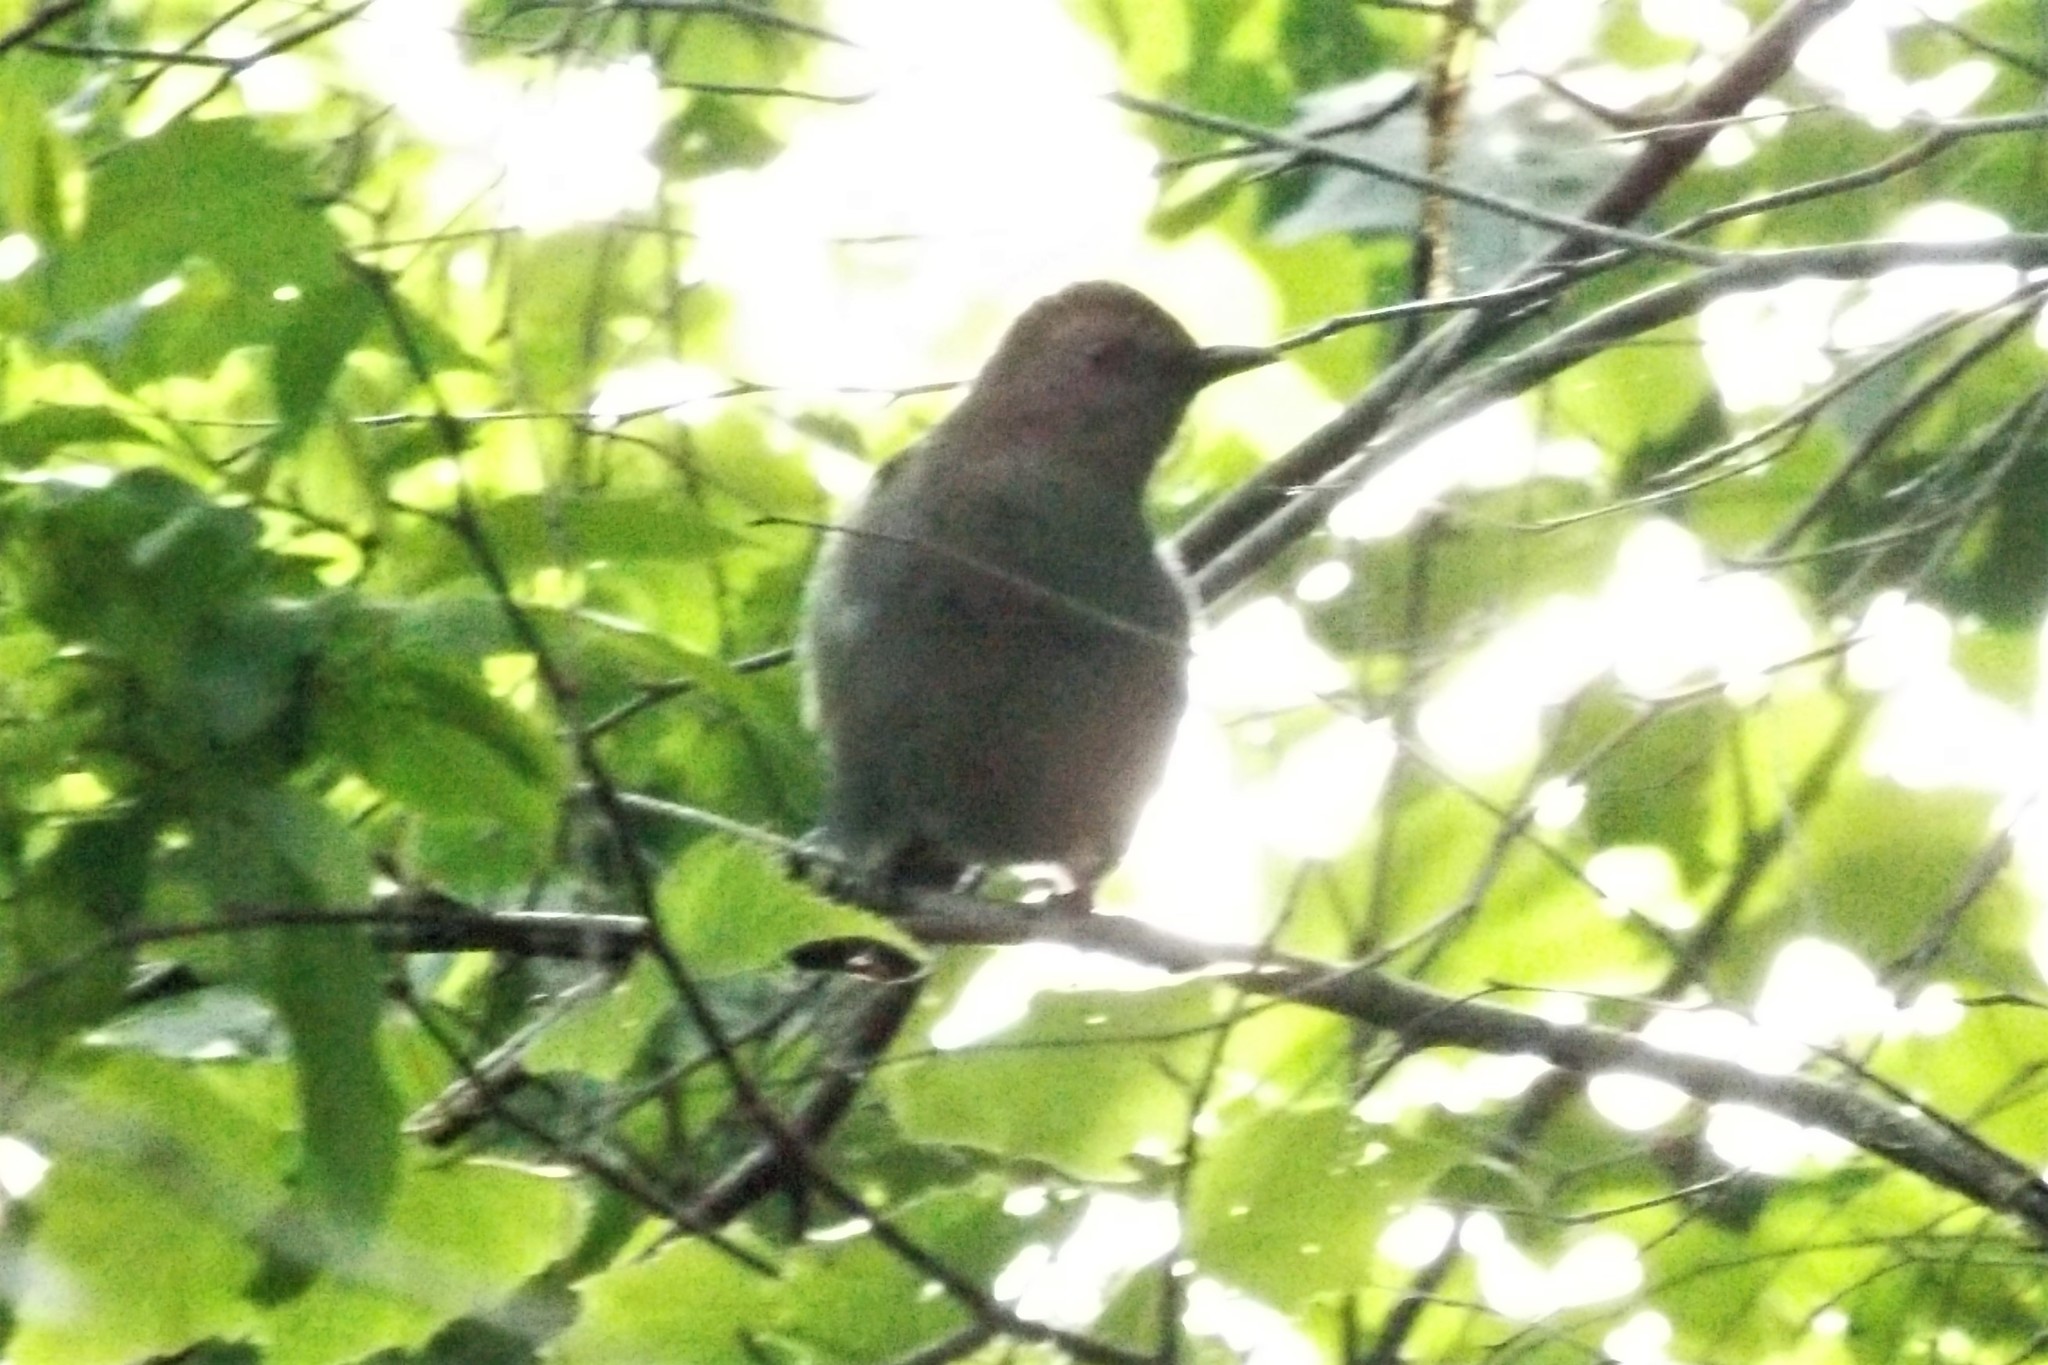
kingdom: Animalia
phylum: Chordata
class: Aves
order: Passeriformes
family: Mimidae
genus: Dumetella
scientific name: Dumetella carolinensis
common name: Gray catbird
